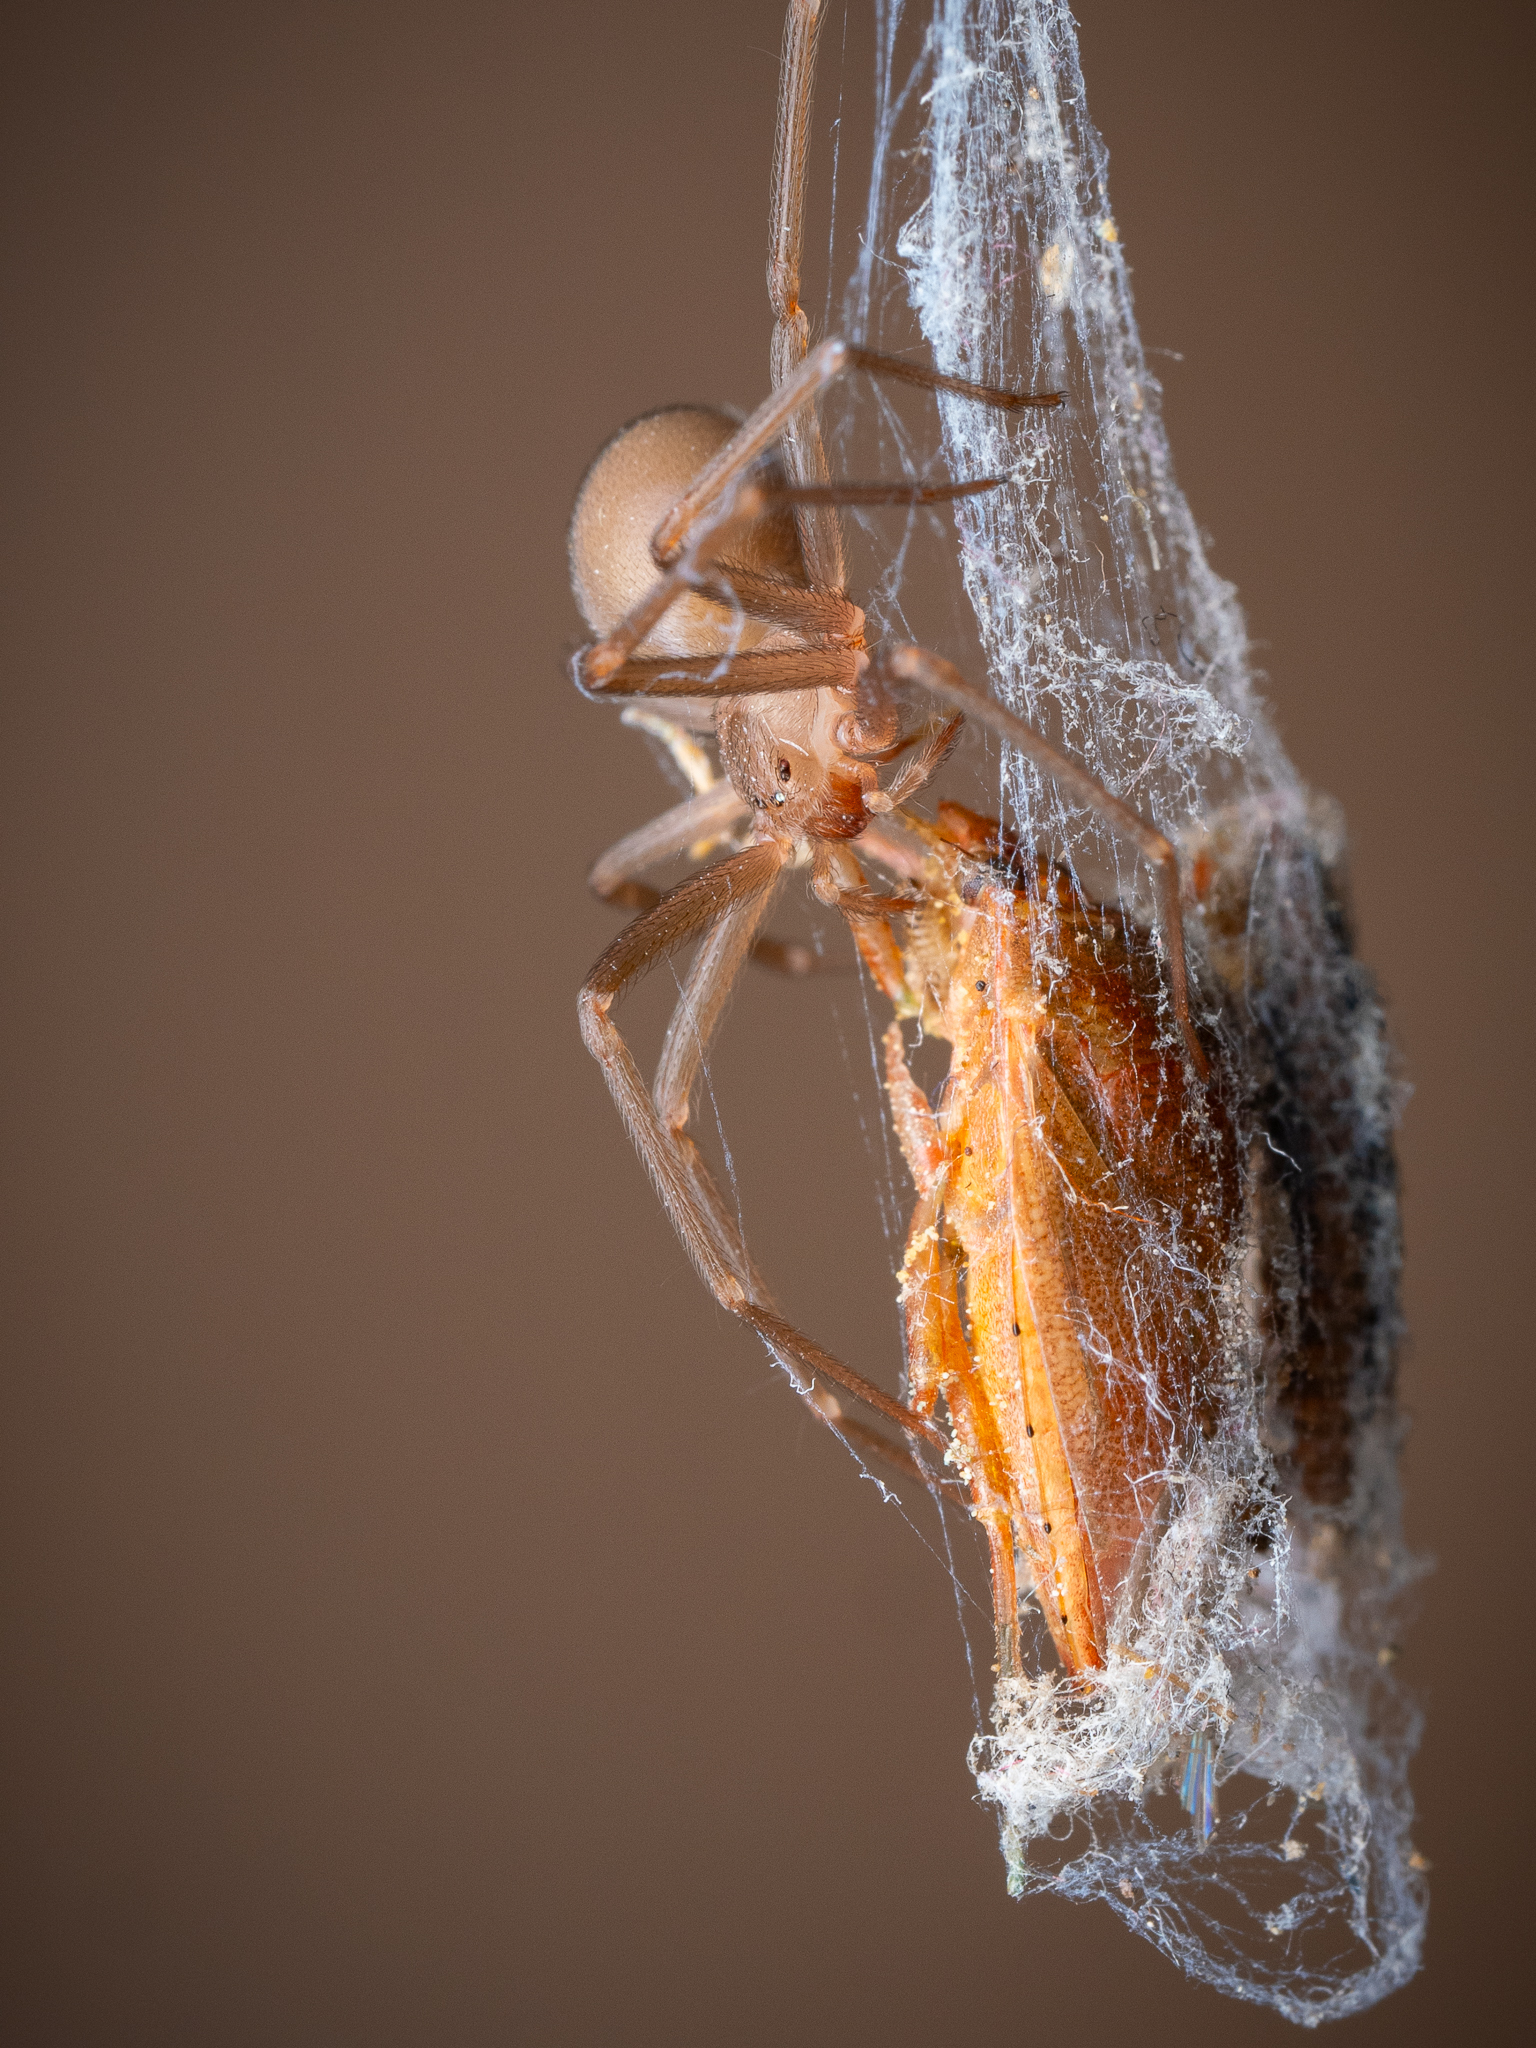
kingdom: Animalia
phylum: Arthropoda
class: Arachnida
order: Araneae
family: Sicariidae
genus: Loxosceles
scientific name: Loxosceles rufescens
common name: Mediterranean recluse spider
